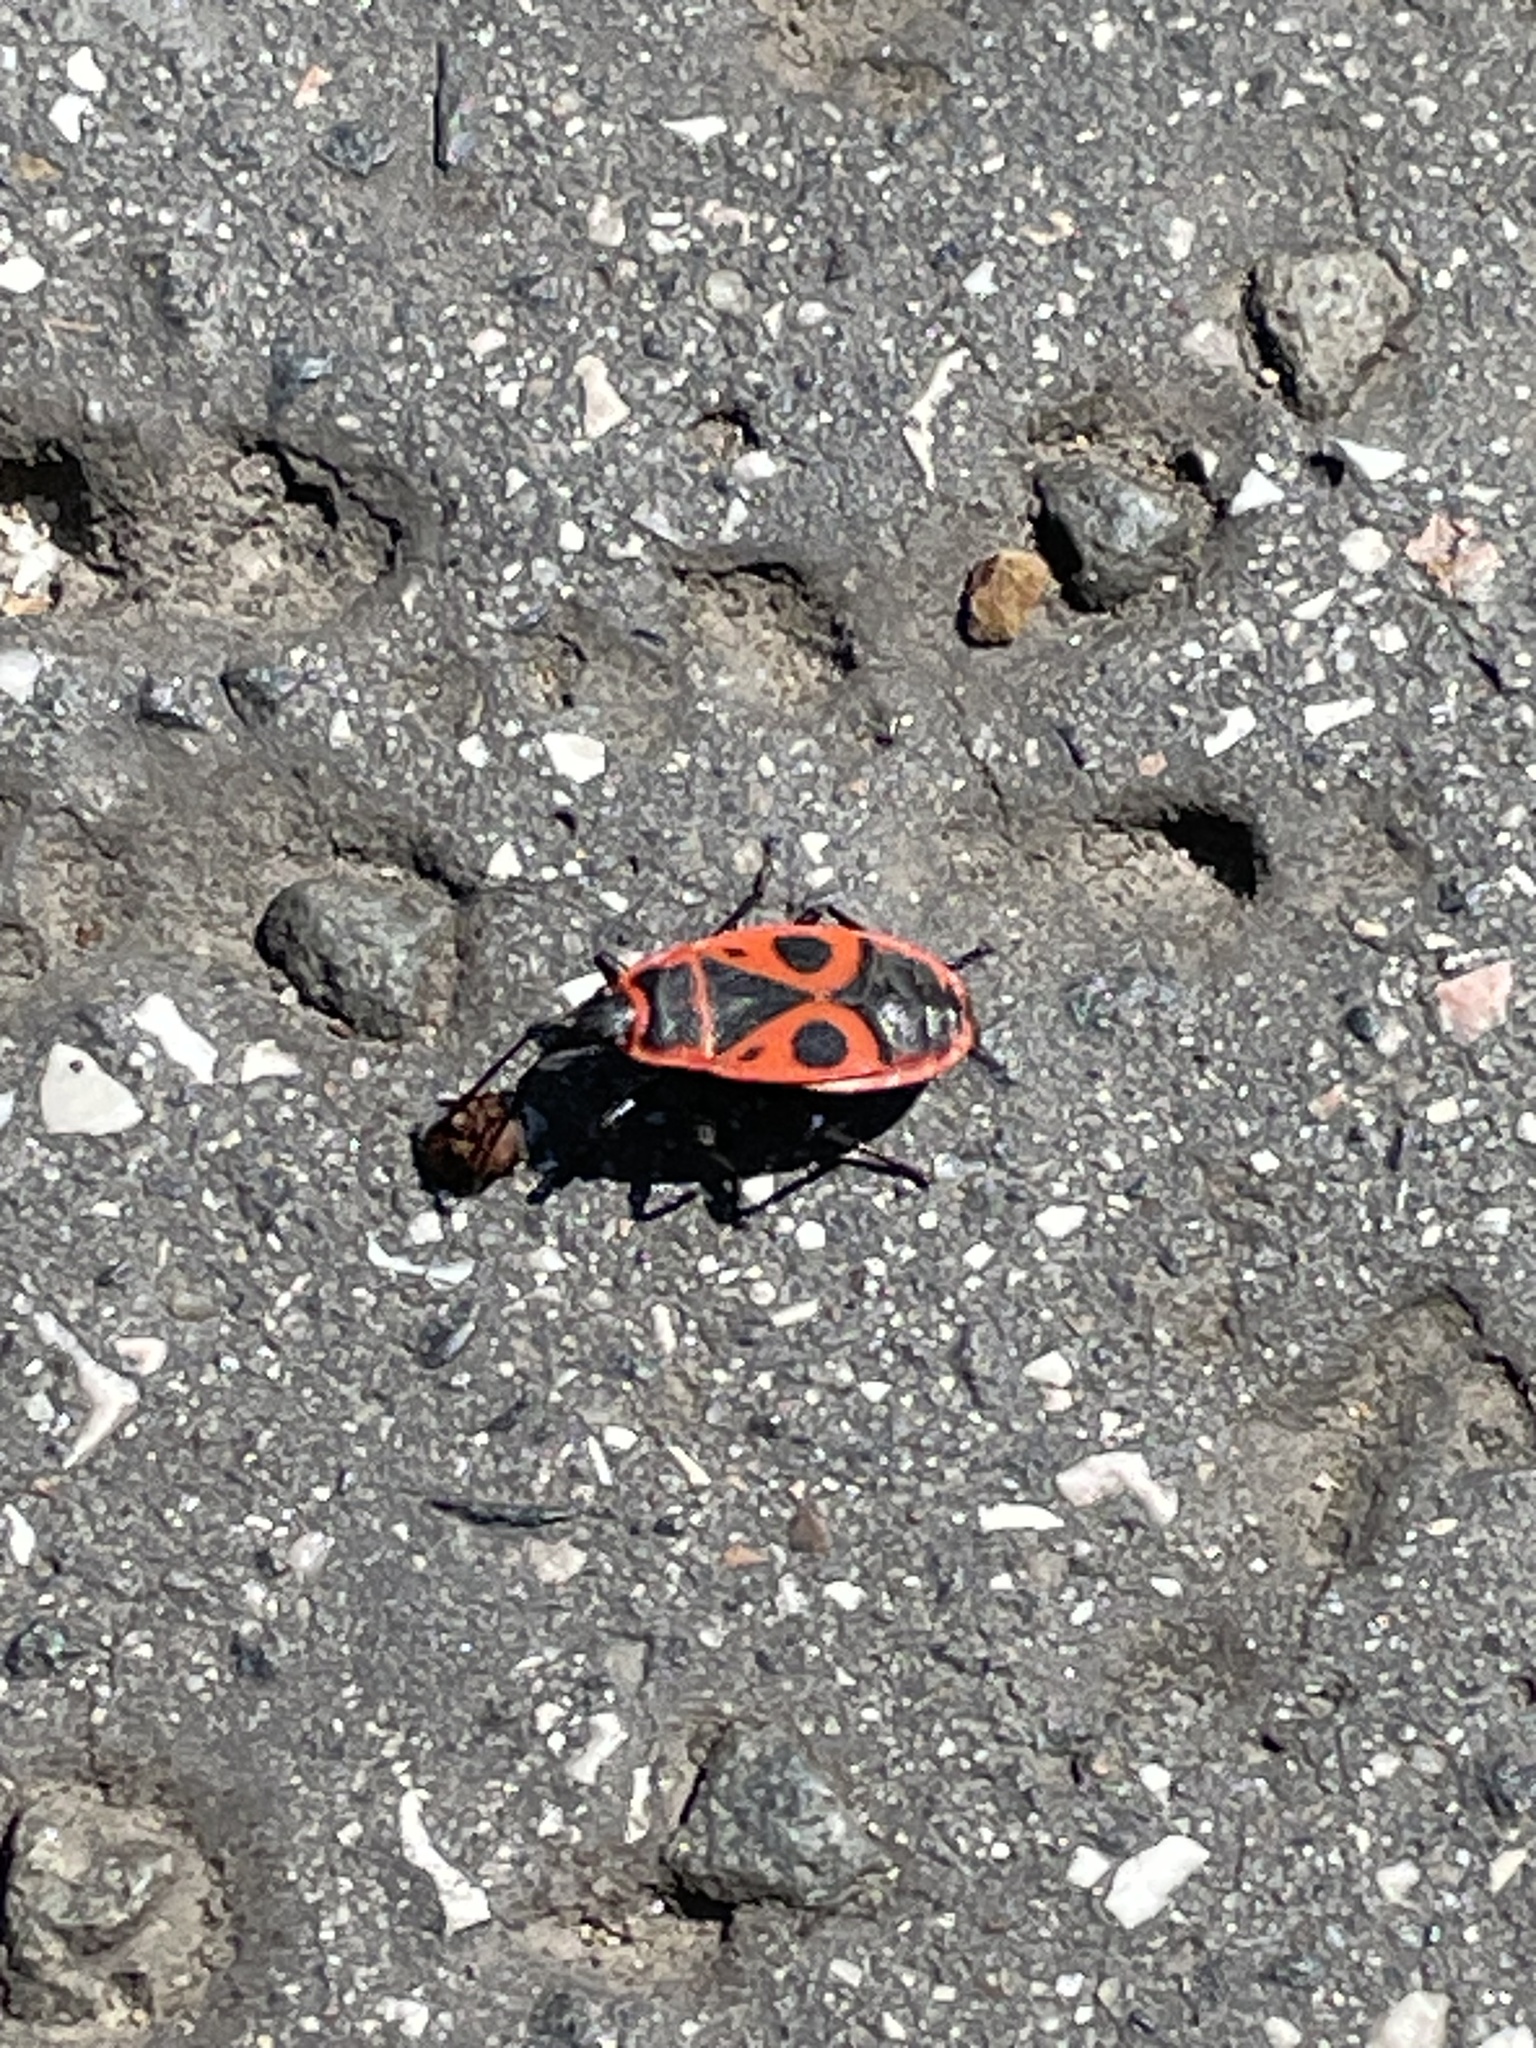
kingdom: Animalia
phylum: Arthropoda
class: Insecta
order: Hemiptera
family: Pyrrhocoridae
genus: Pyrrhocoris
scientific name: Pyrrhocoris apterus
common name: Firebug
